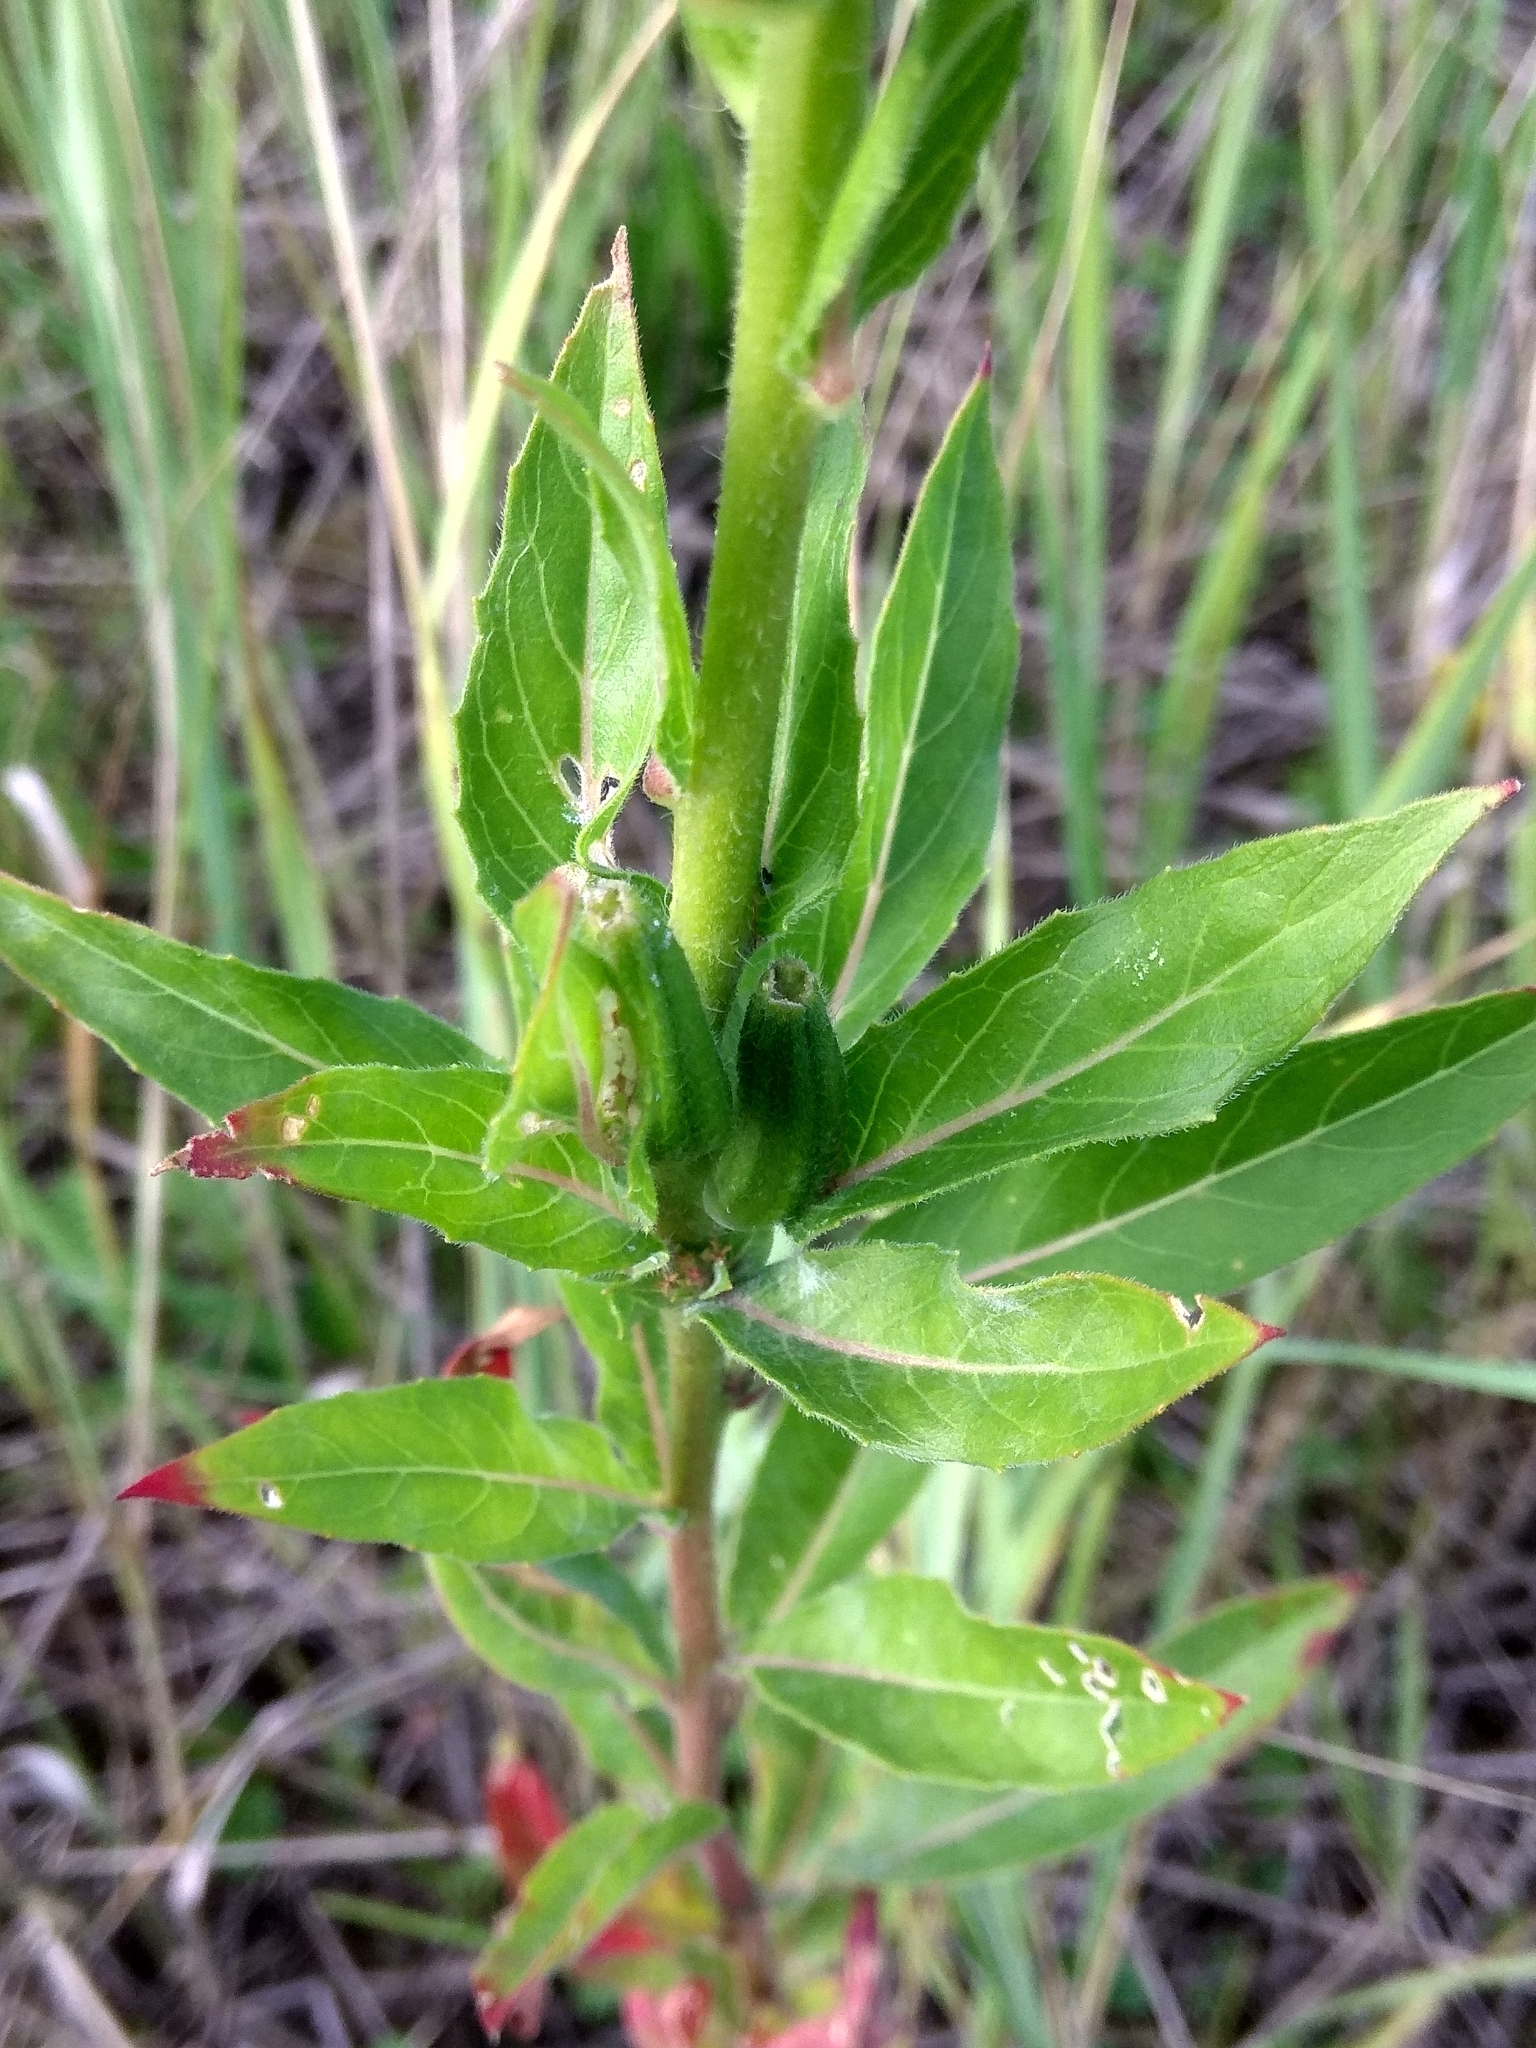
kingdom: Plantae
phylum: Tracheophyta
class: Magnoliopsida
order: Myrtales
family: Onagraceae
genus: Oenothera
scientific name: Oenothera biennis
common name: Common evening-primrose
